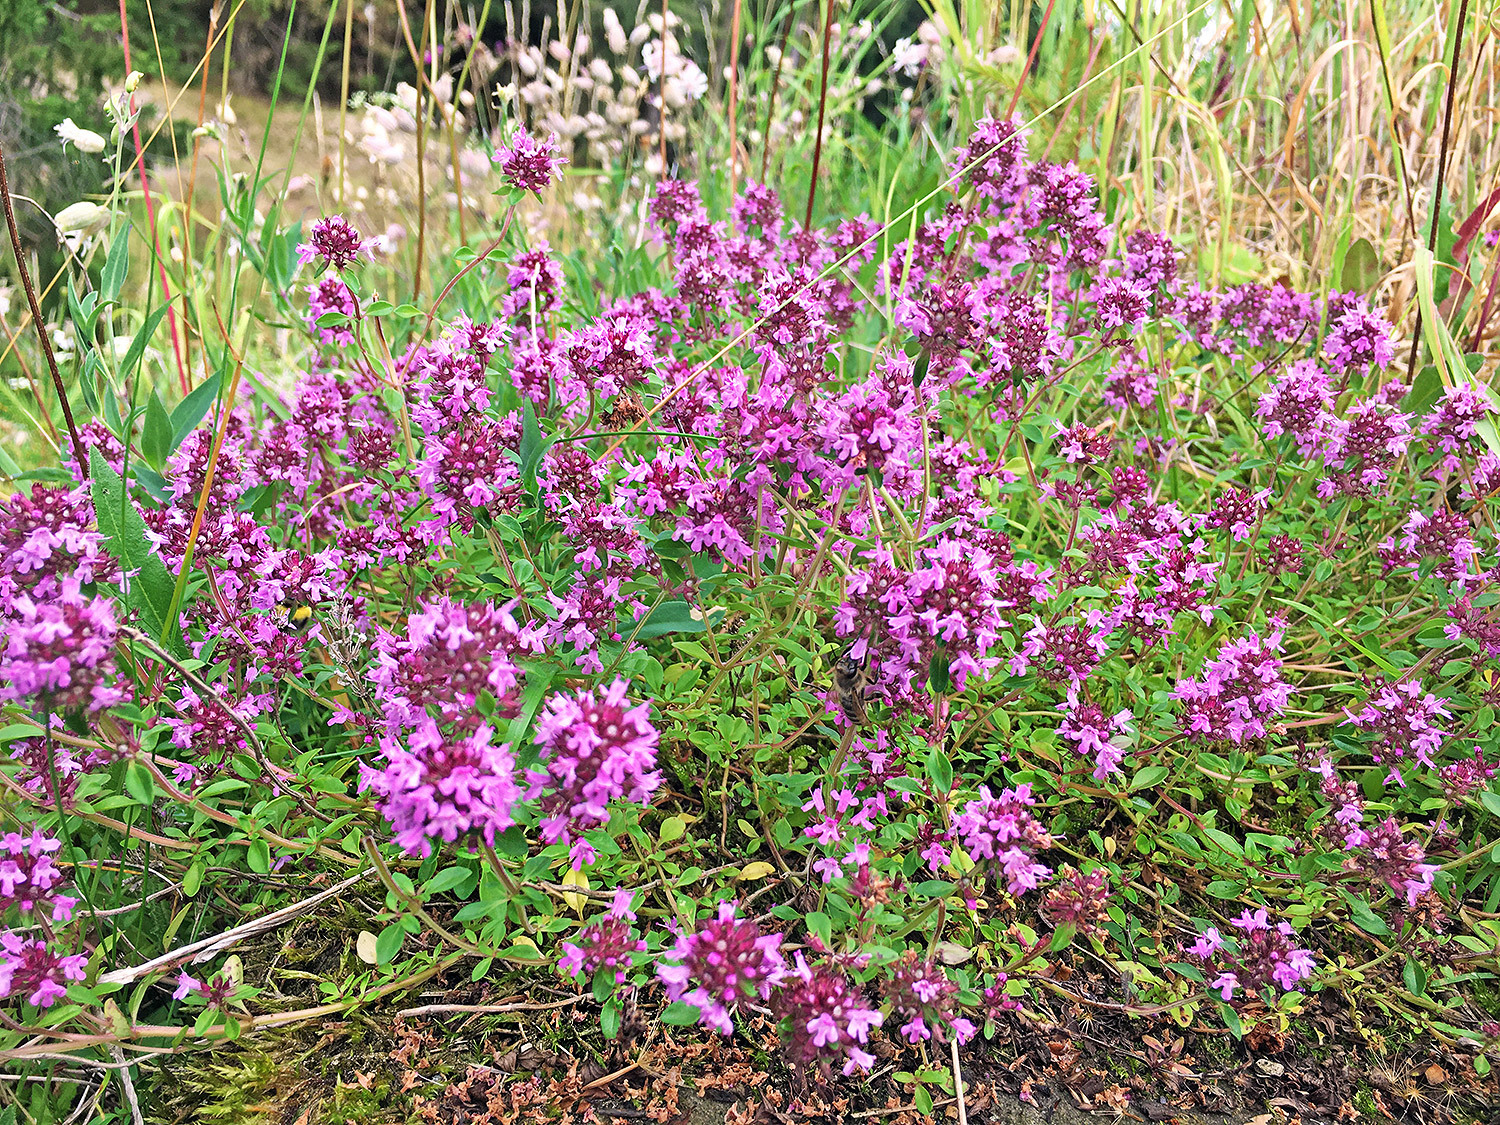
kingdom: Plantae
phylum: Tracheophyta
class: Magnoliopsida
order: Lamiales
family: Lamiaceae
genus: Thymus
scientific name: Thymus pulegioides
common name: Large thyme
